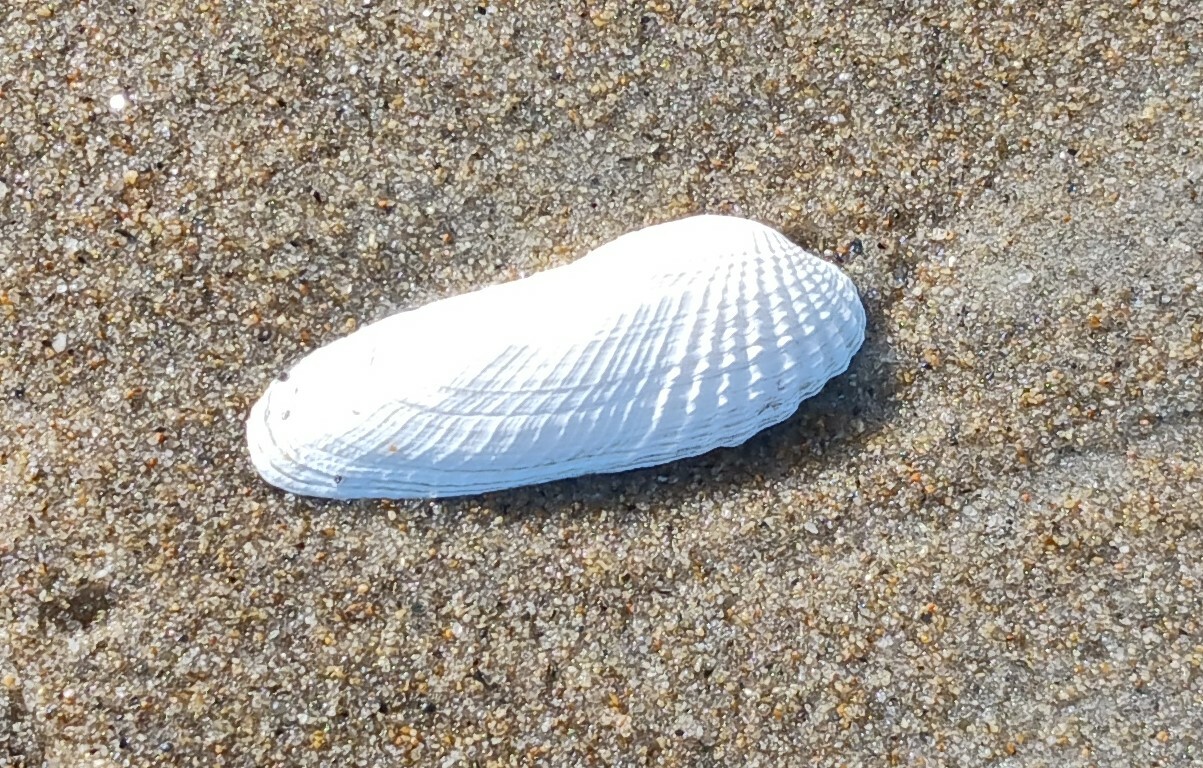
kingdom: Animalia
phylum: Mollusca
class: Bivalvia
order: Venerida
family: Veneridae
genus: Petricolaria
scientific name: Petricolaria pholadiformis
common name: American piddock
